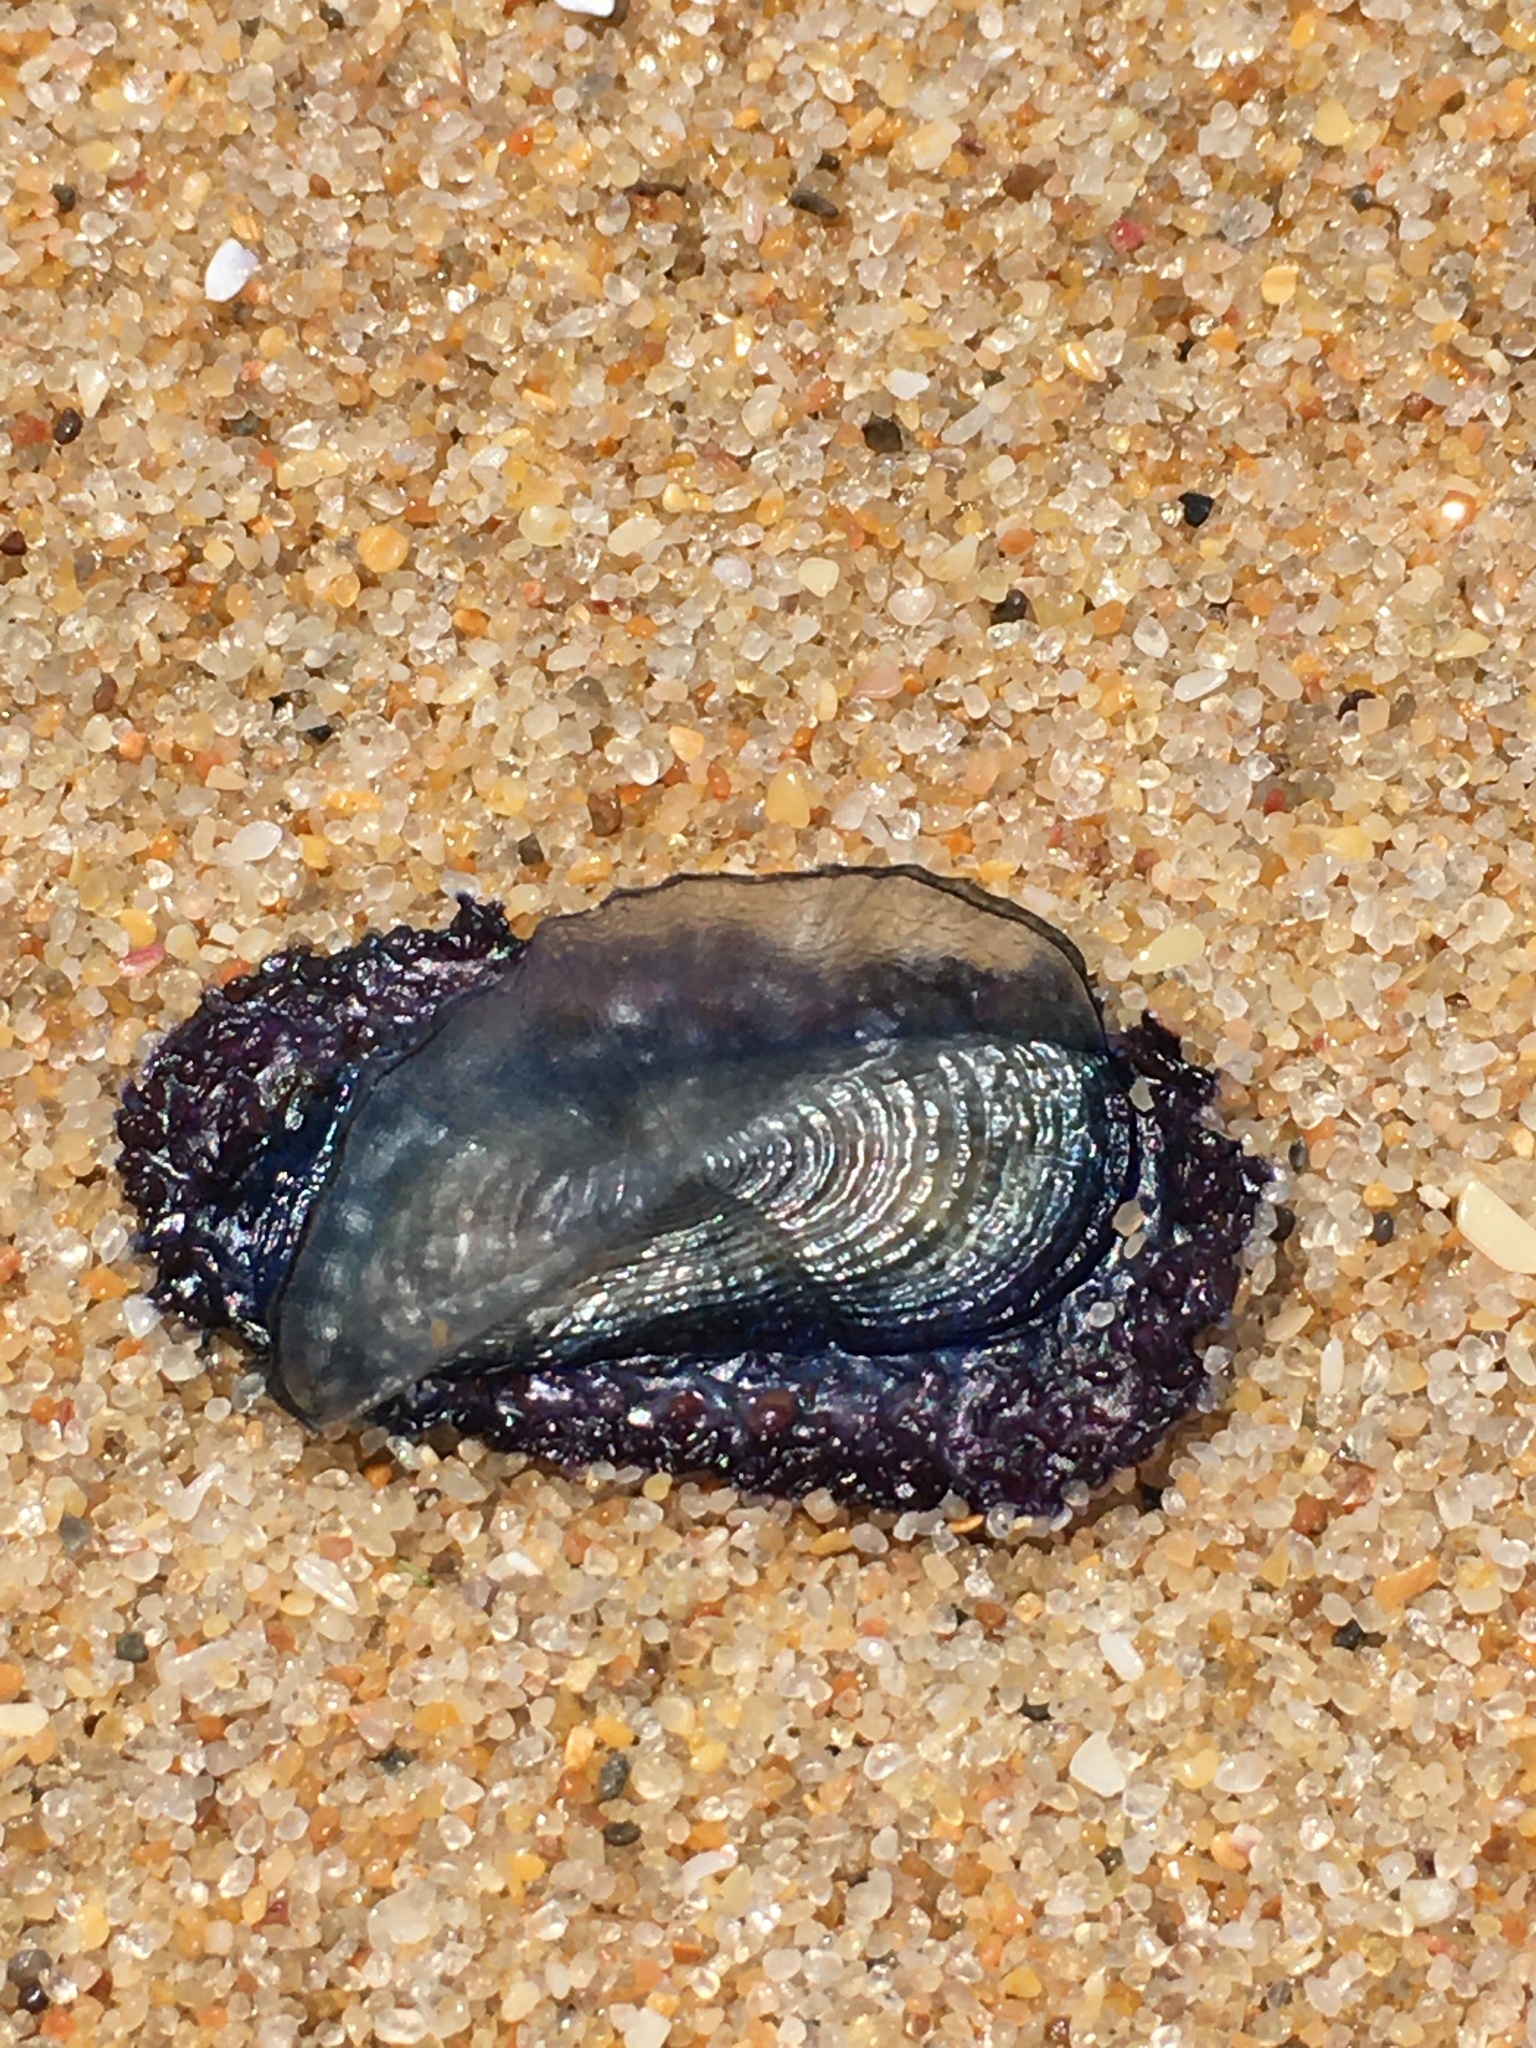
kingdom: Animalia
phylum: Cnidaria
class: Hydrozoa
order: Anthoathecata
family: Porpitidae
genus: Velella
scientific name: Velella velella
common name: By-the-wind-sailor
